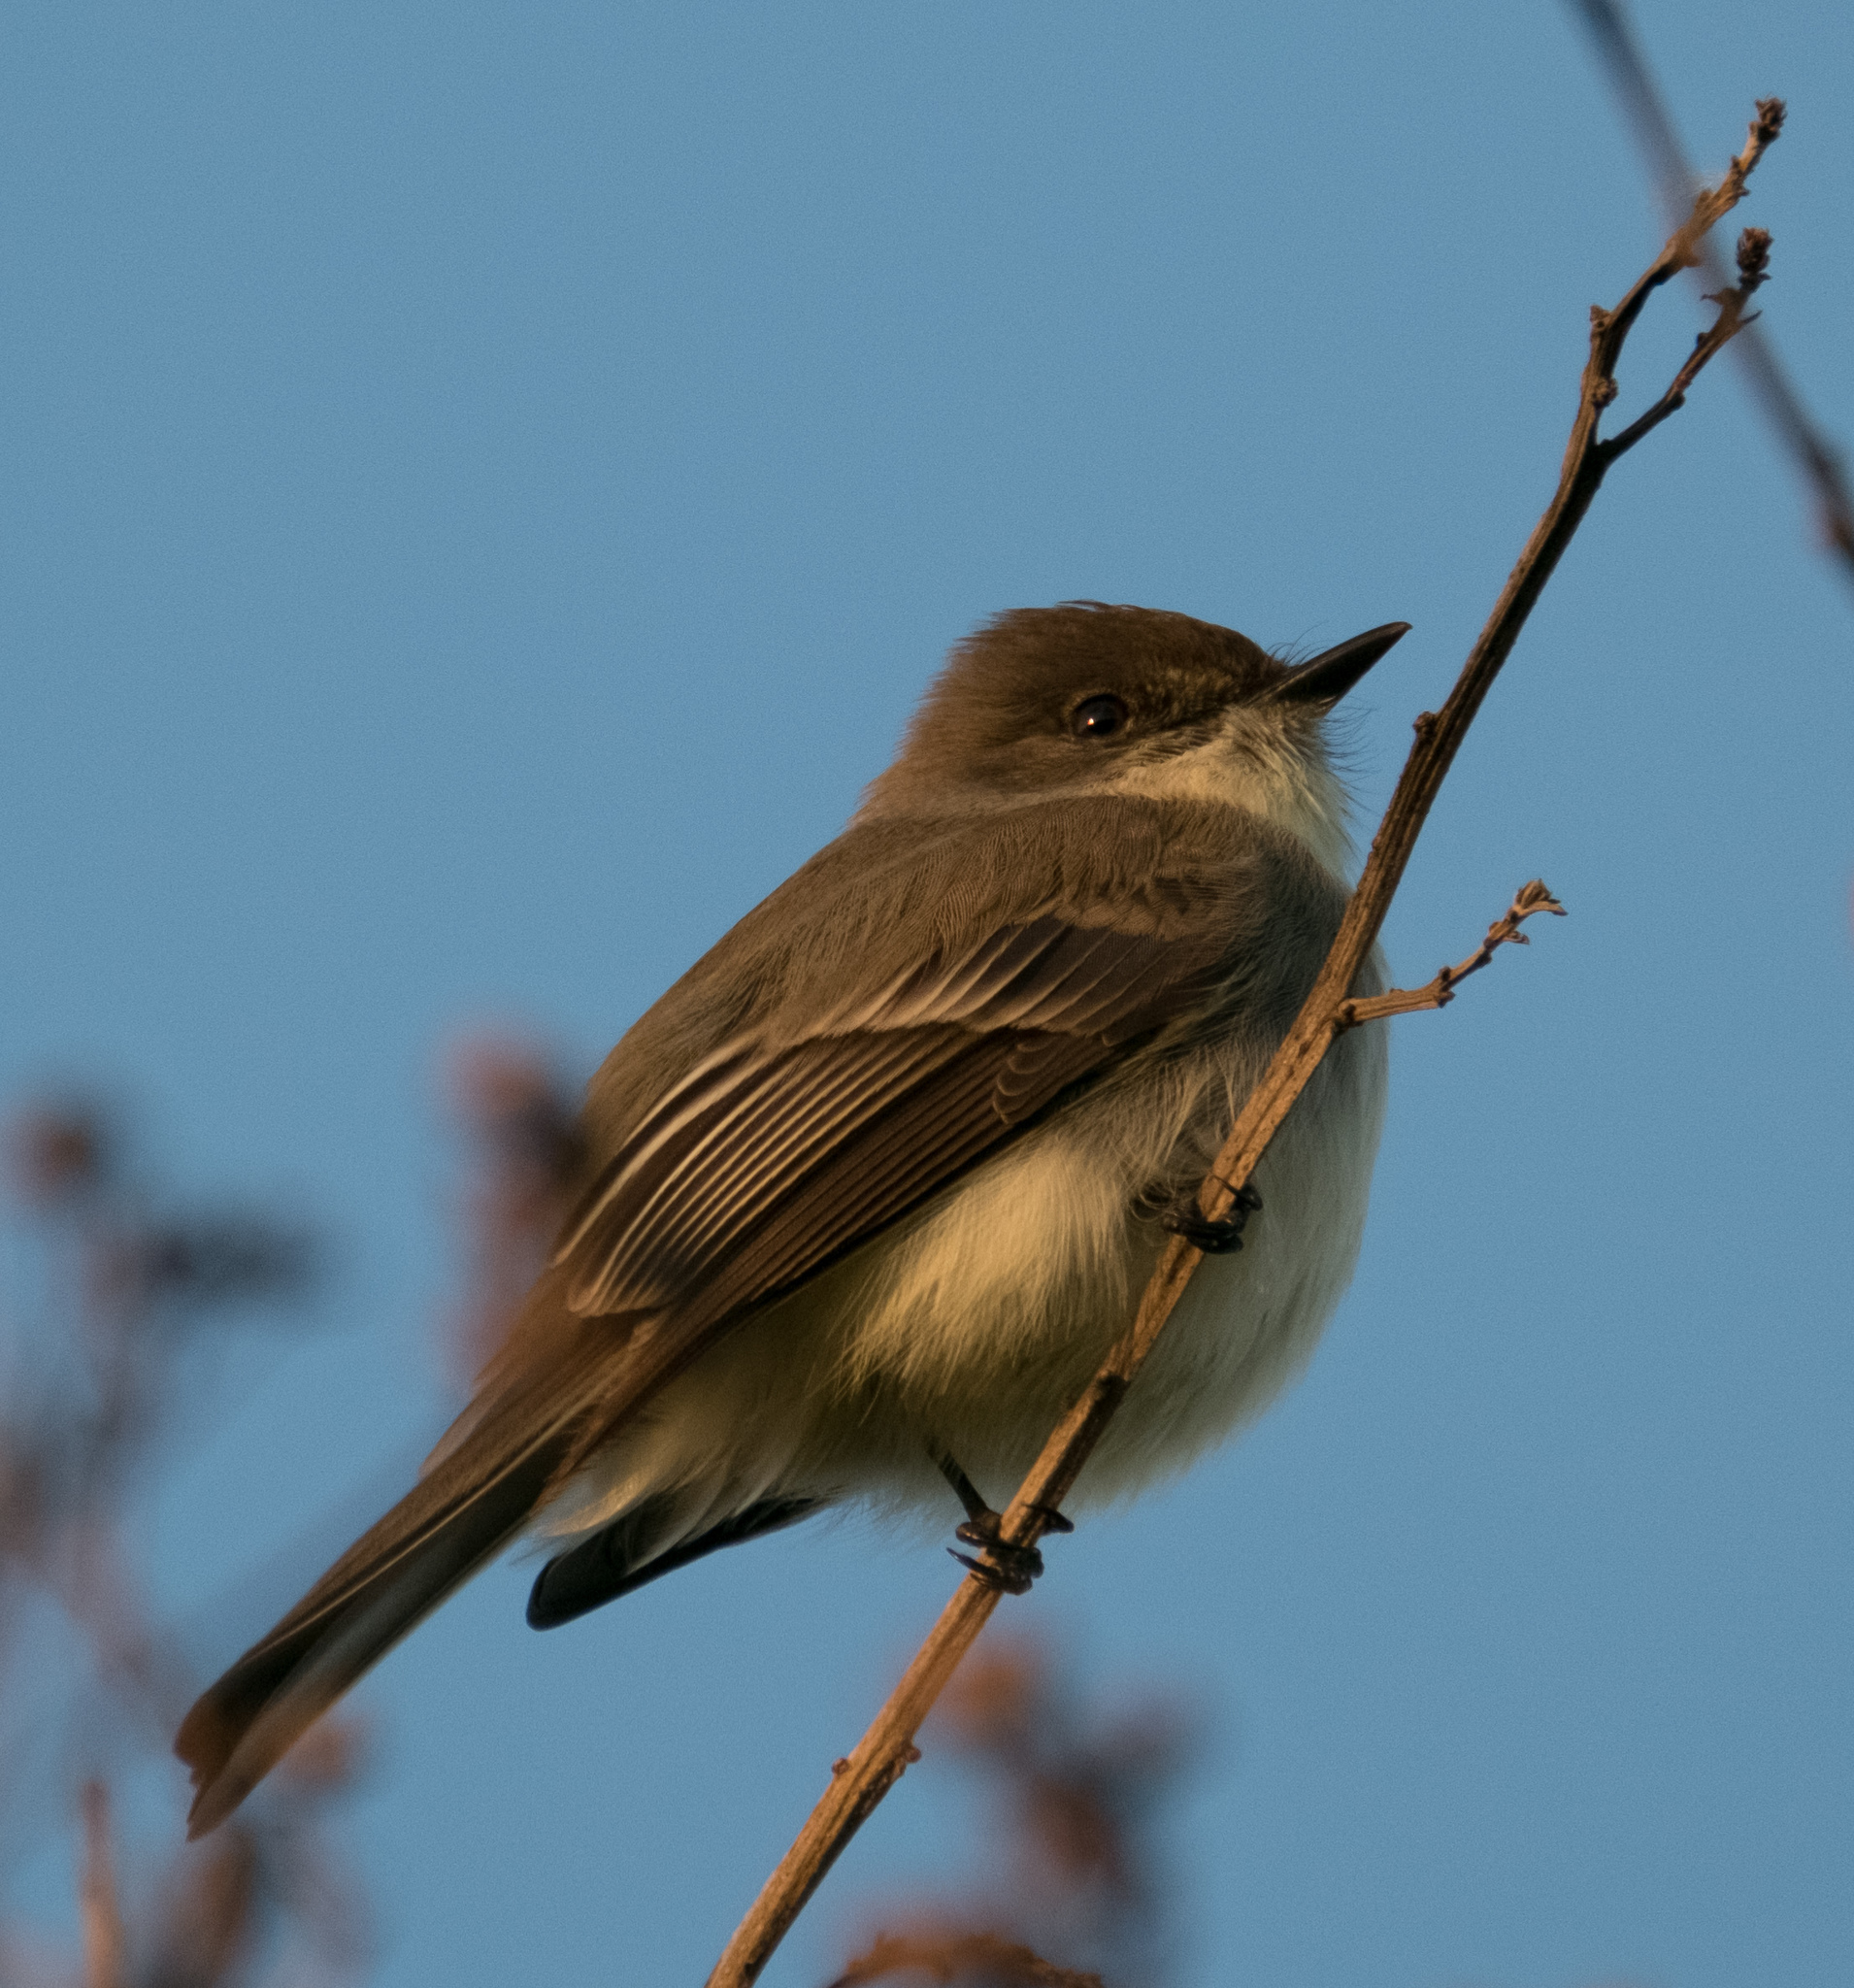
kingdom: Animalia
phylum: Chordata
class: Aves
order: Passeriformes
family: Tyrannidae
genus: Sayornis
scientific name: Sayornis phoebe
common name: Eastern phoebe
